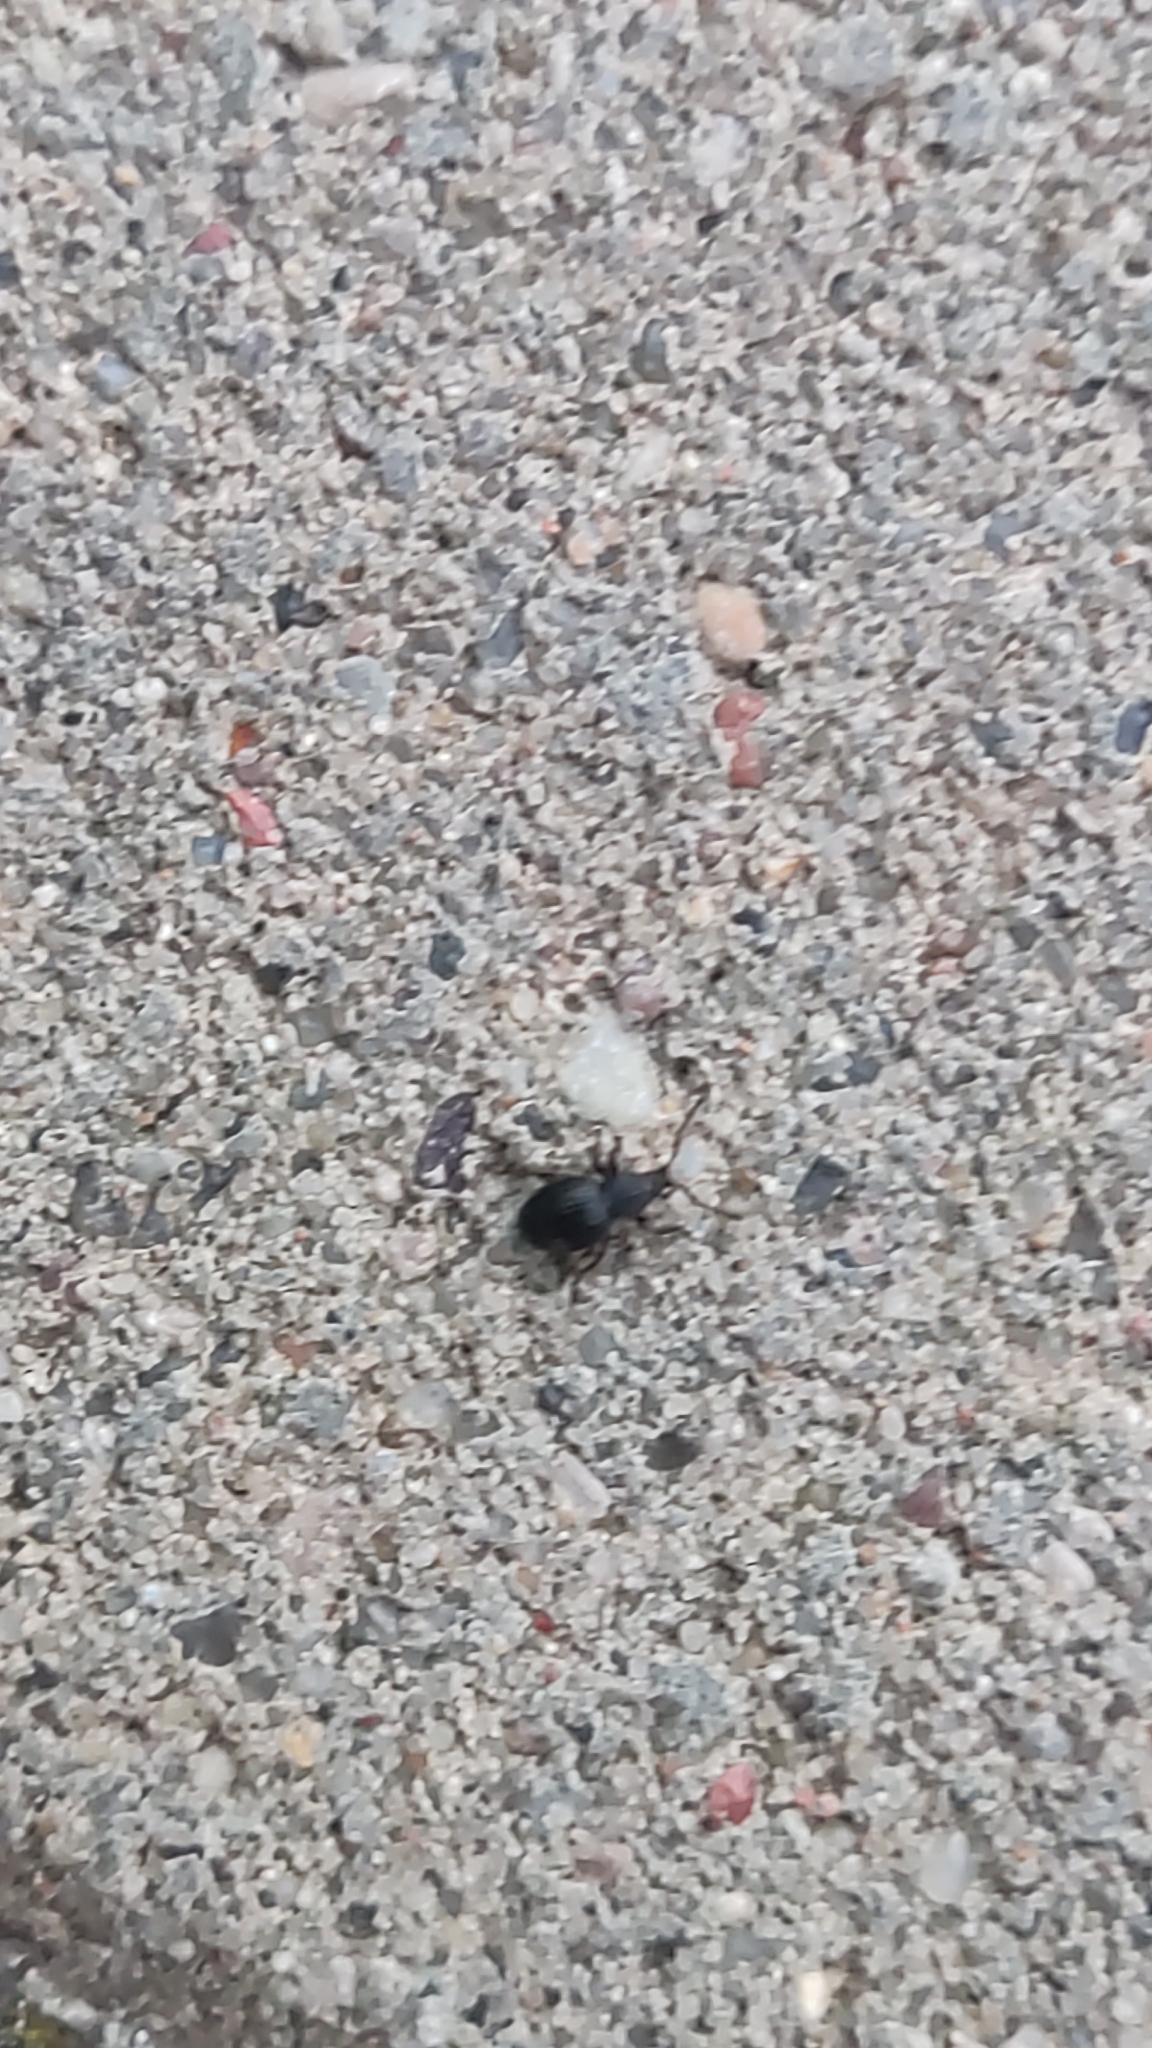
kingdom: Animalia
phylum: Arthropoda
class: Insecta
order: Coleoptera
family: Curculionidae
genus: Otiorhynchus
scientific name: Otiorhynchus ovatus
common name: Strawberry root weevil
